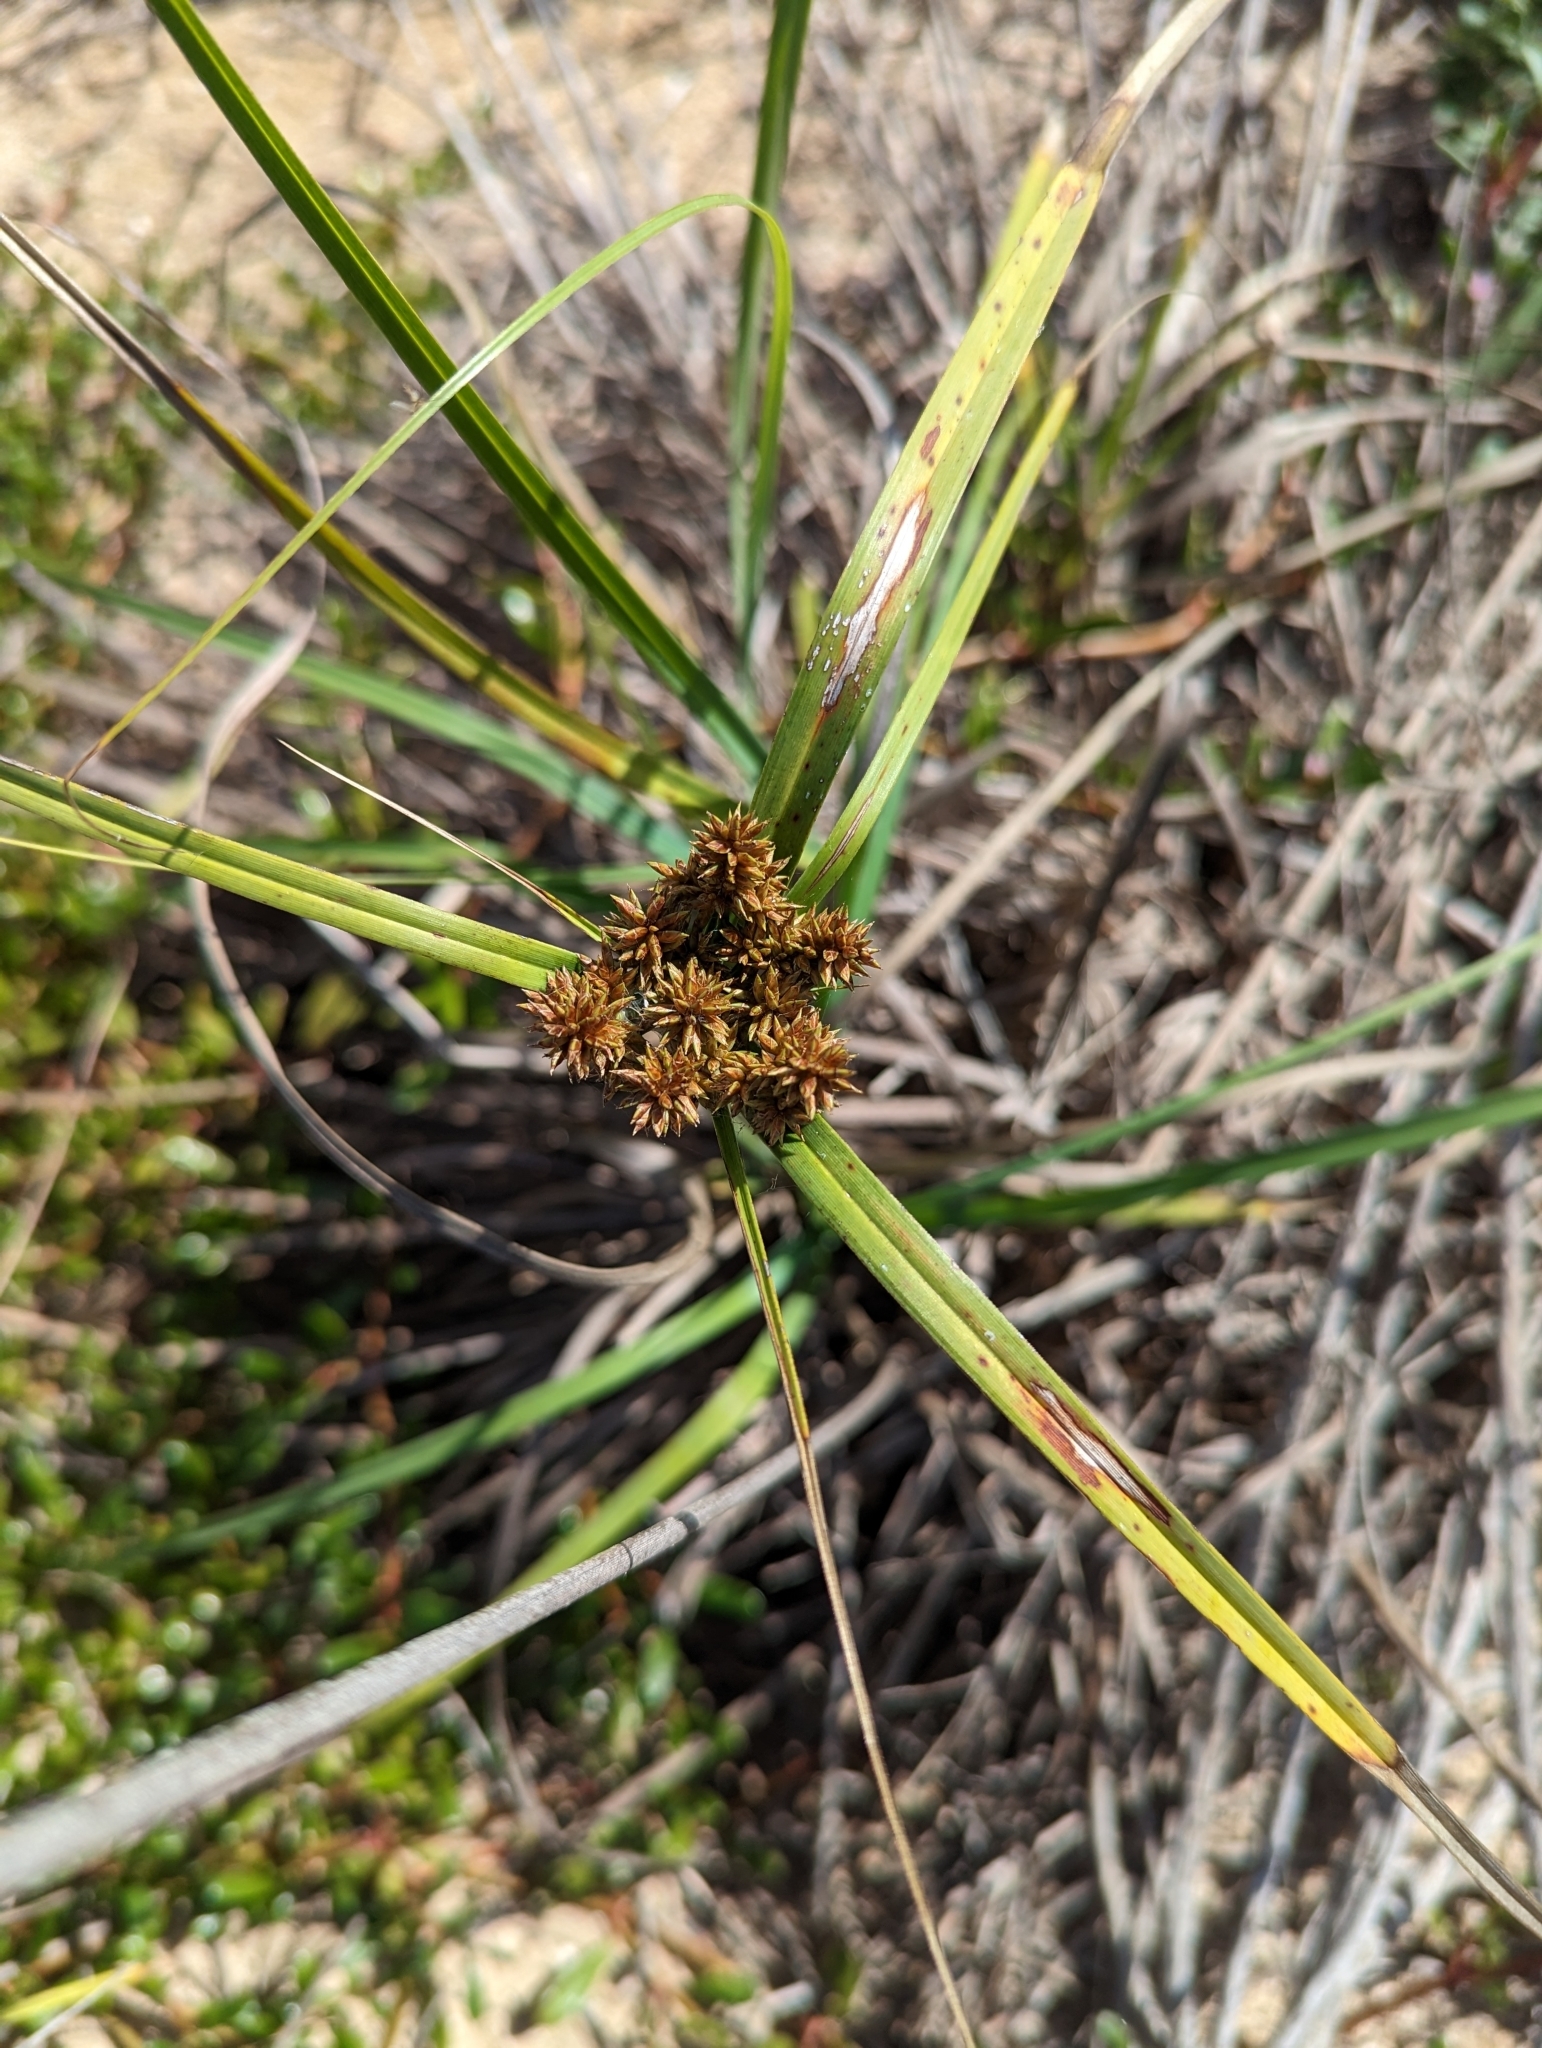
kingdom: Plantae
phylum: Tracheophyta
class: Liliopsida
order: Poales
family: Cyperaceae
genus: Cyperus
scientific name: Cyperus javanicus
